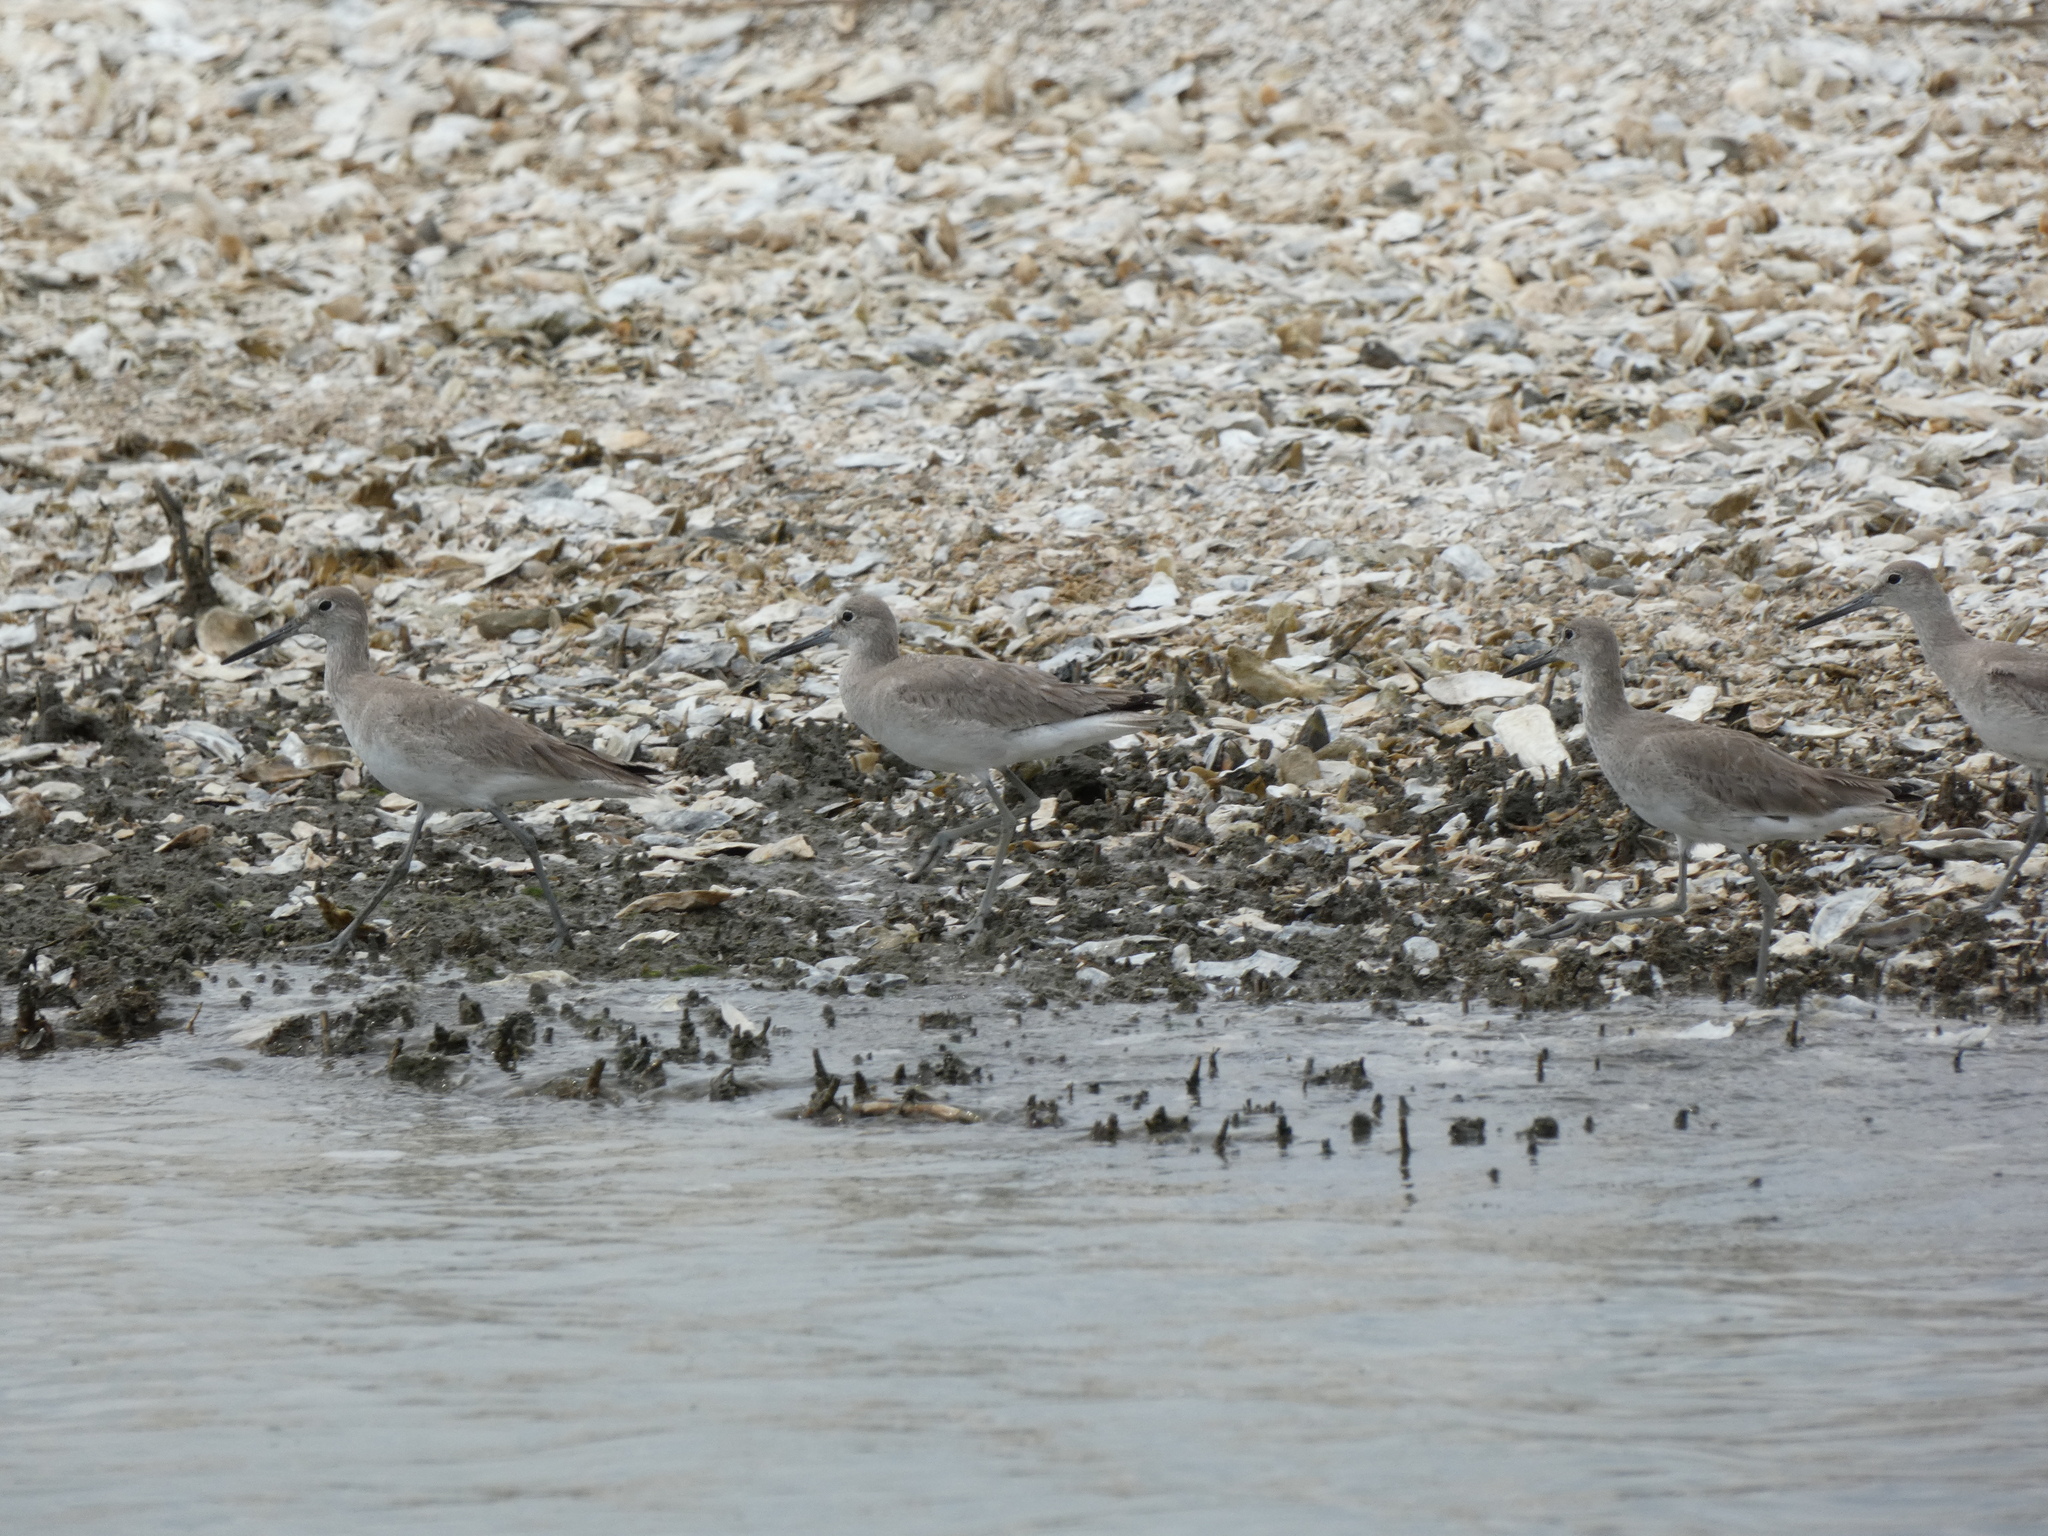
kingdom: Animalia
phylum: Chordata
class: Aves
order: Charadriiformes
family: Scolopacidae
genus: Tringa
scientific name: Tringa semipalmata
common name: Willet
